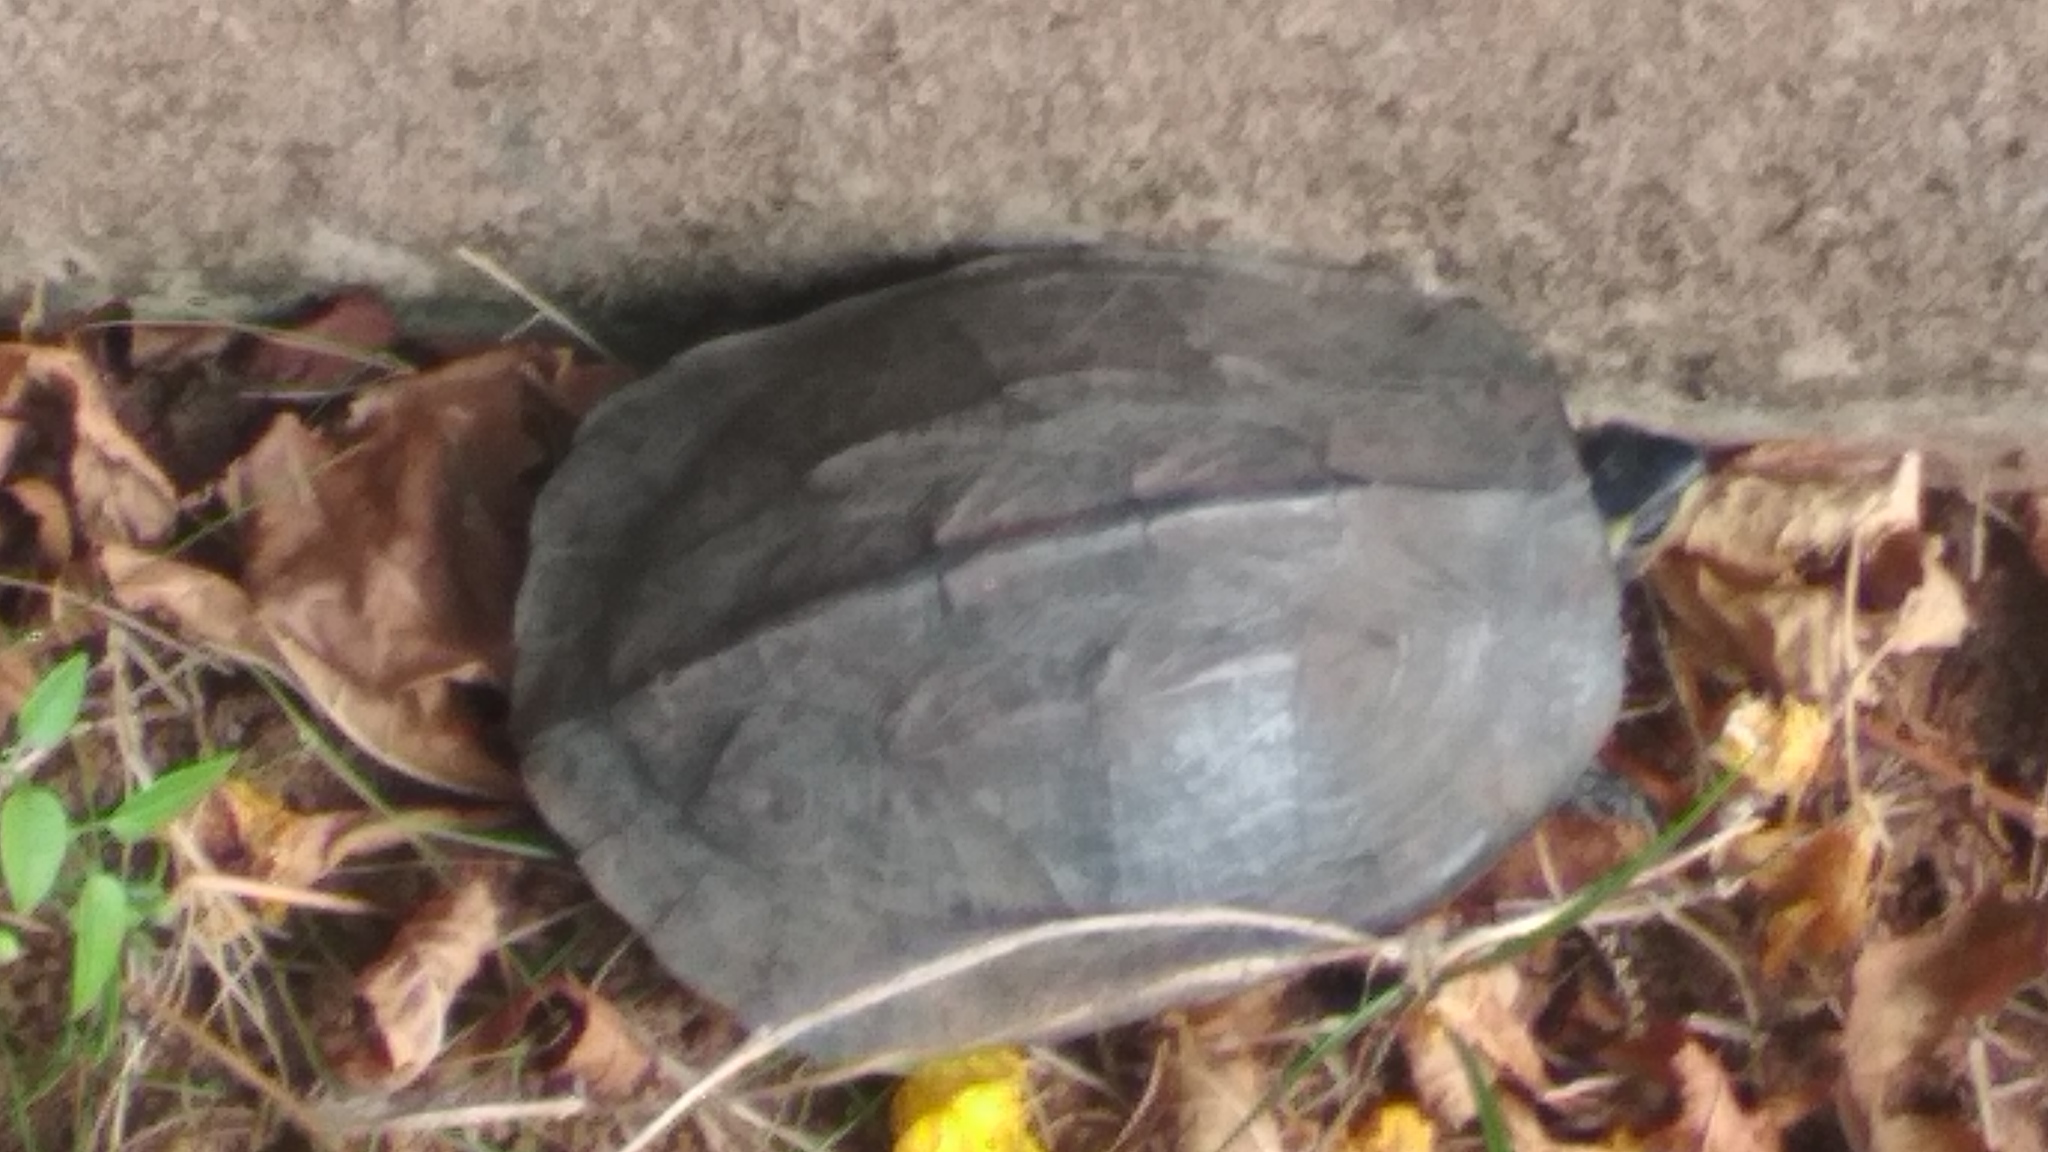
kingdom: Animalia
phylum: Chordata
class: Testudines
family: Geoemydidae
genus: Melanochelys
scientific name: Melanochelys trijuga
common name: Indian black turtle
